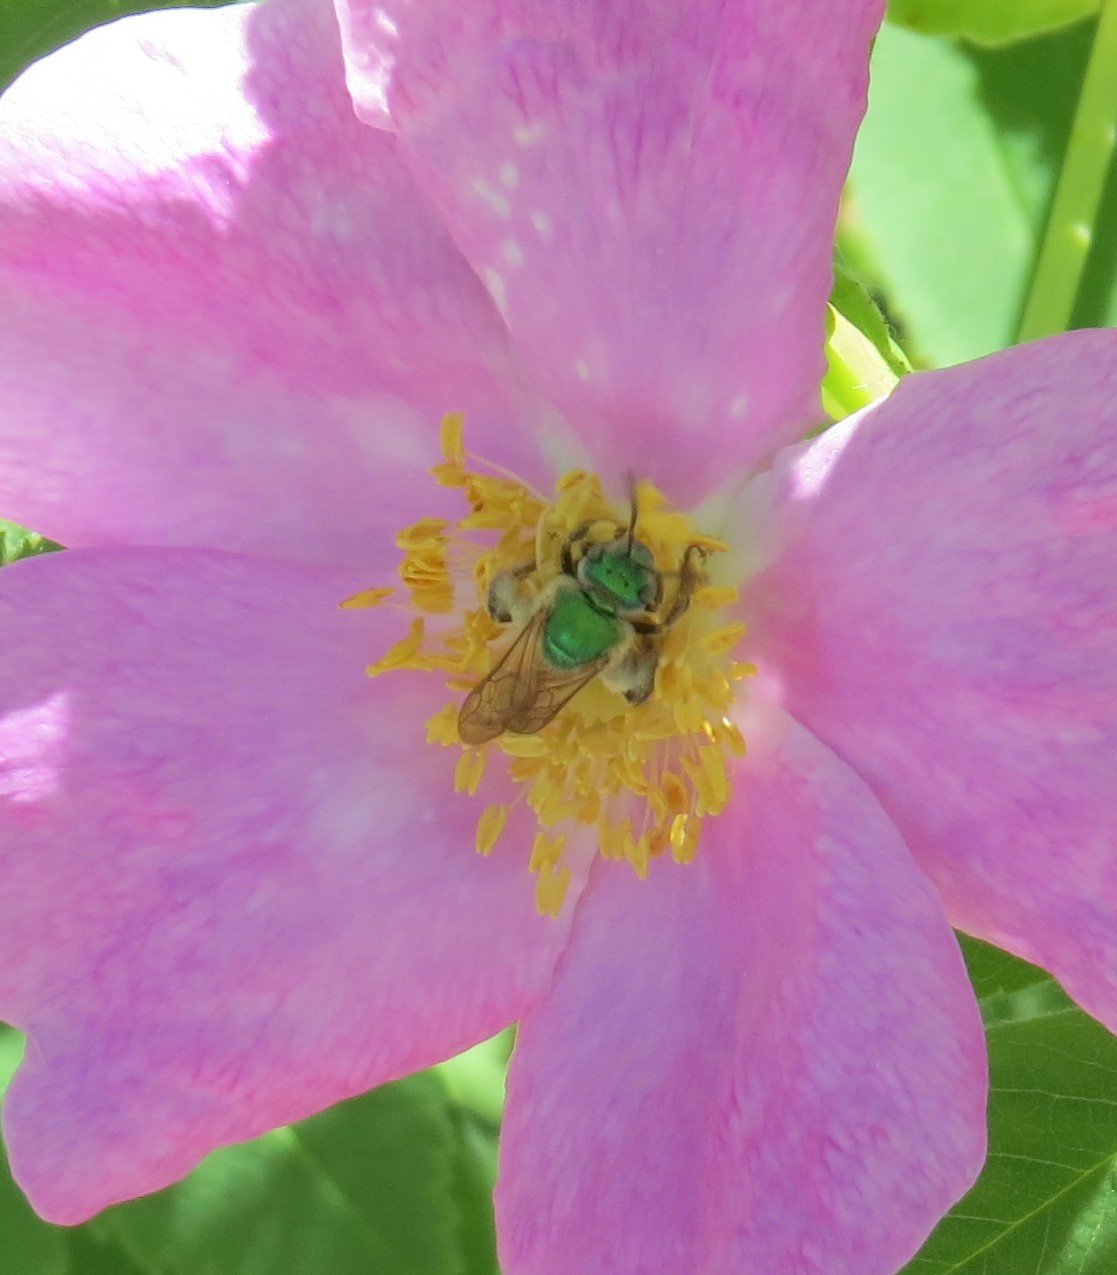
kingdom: Animalia
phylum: Arthropoda
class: Insecta
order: Hymenoptera
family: Halictidae
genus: Agapostemon
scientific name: Agapostemon virescens
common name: Bicolored striped sweat bee
